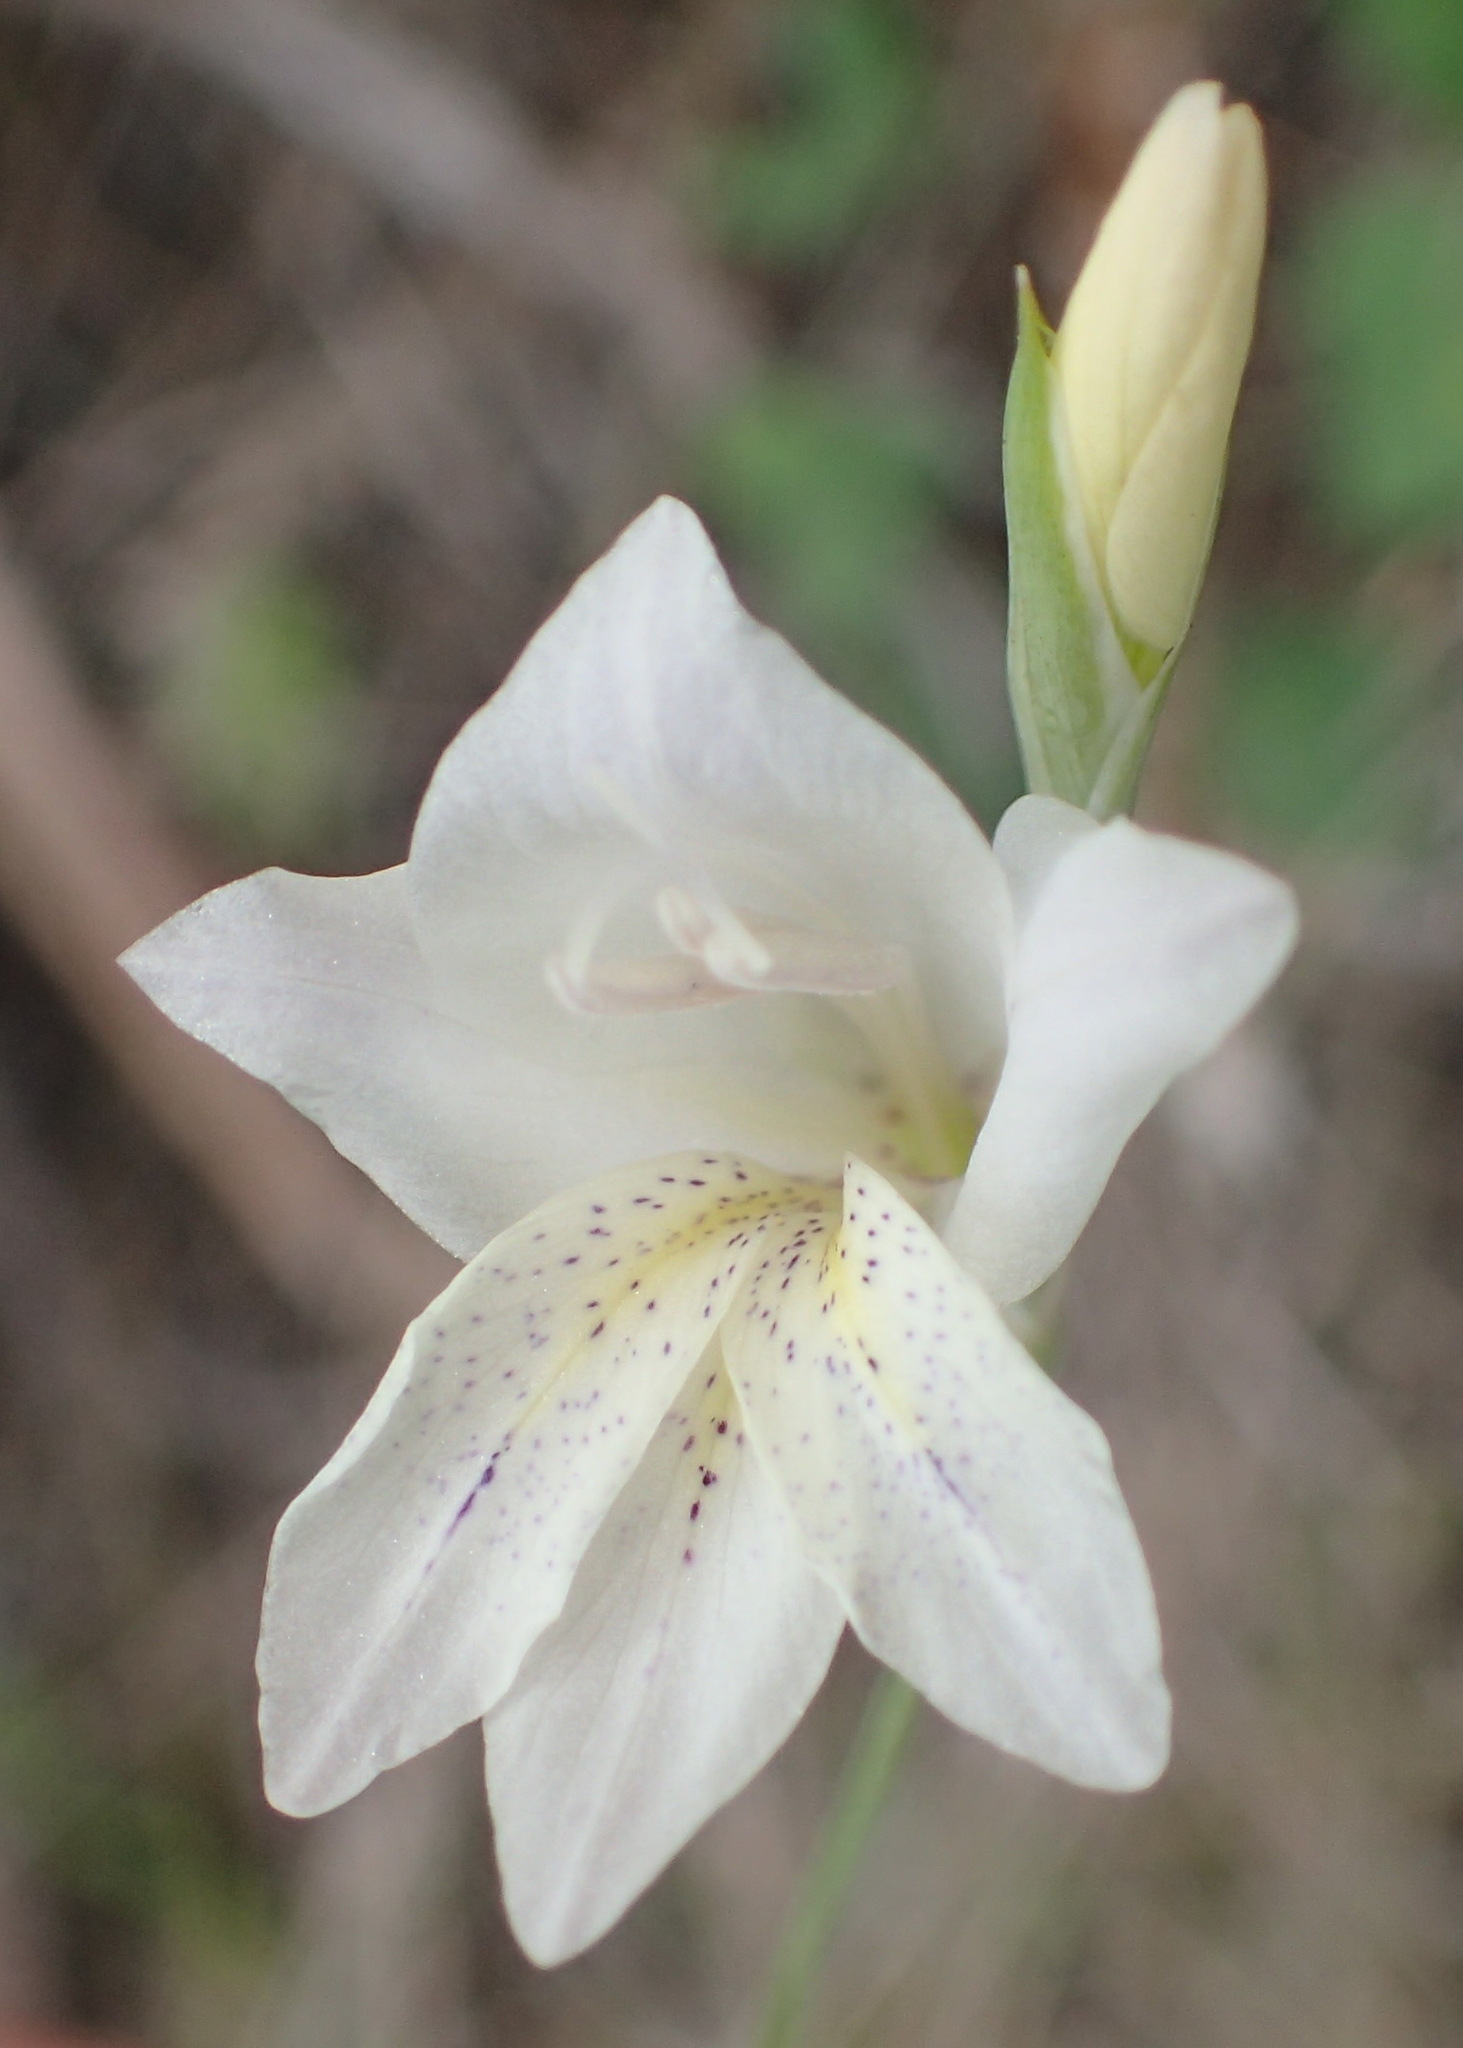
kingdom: Plantae
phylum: Tracheophyta
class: Liliopsida
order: Asparagales
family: Iridaceae
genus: Gladiolus
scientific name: Gladiolus vaginatus
